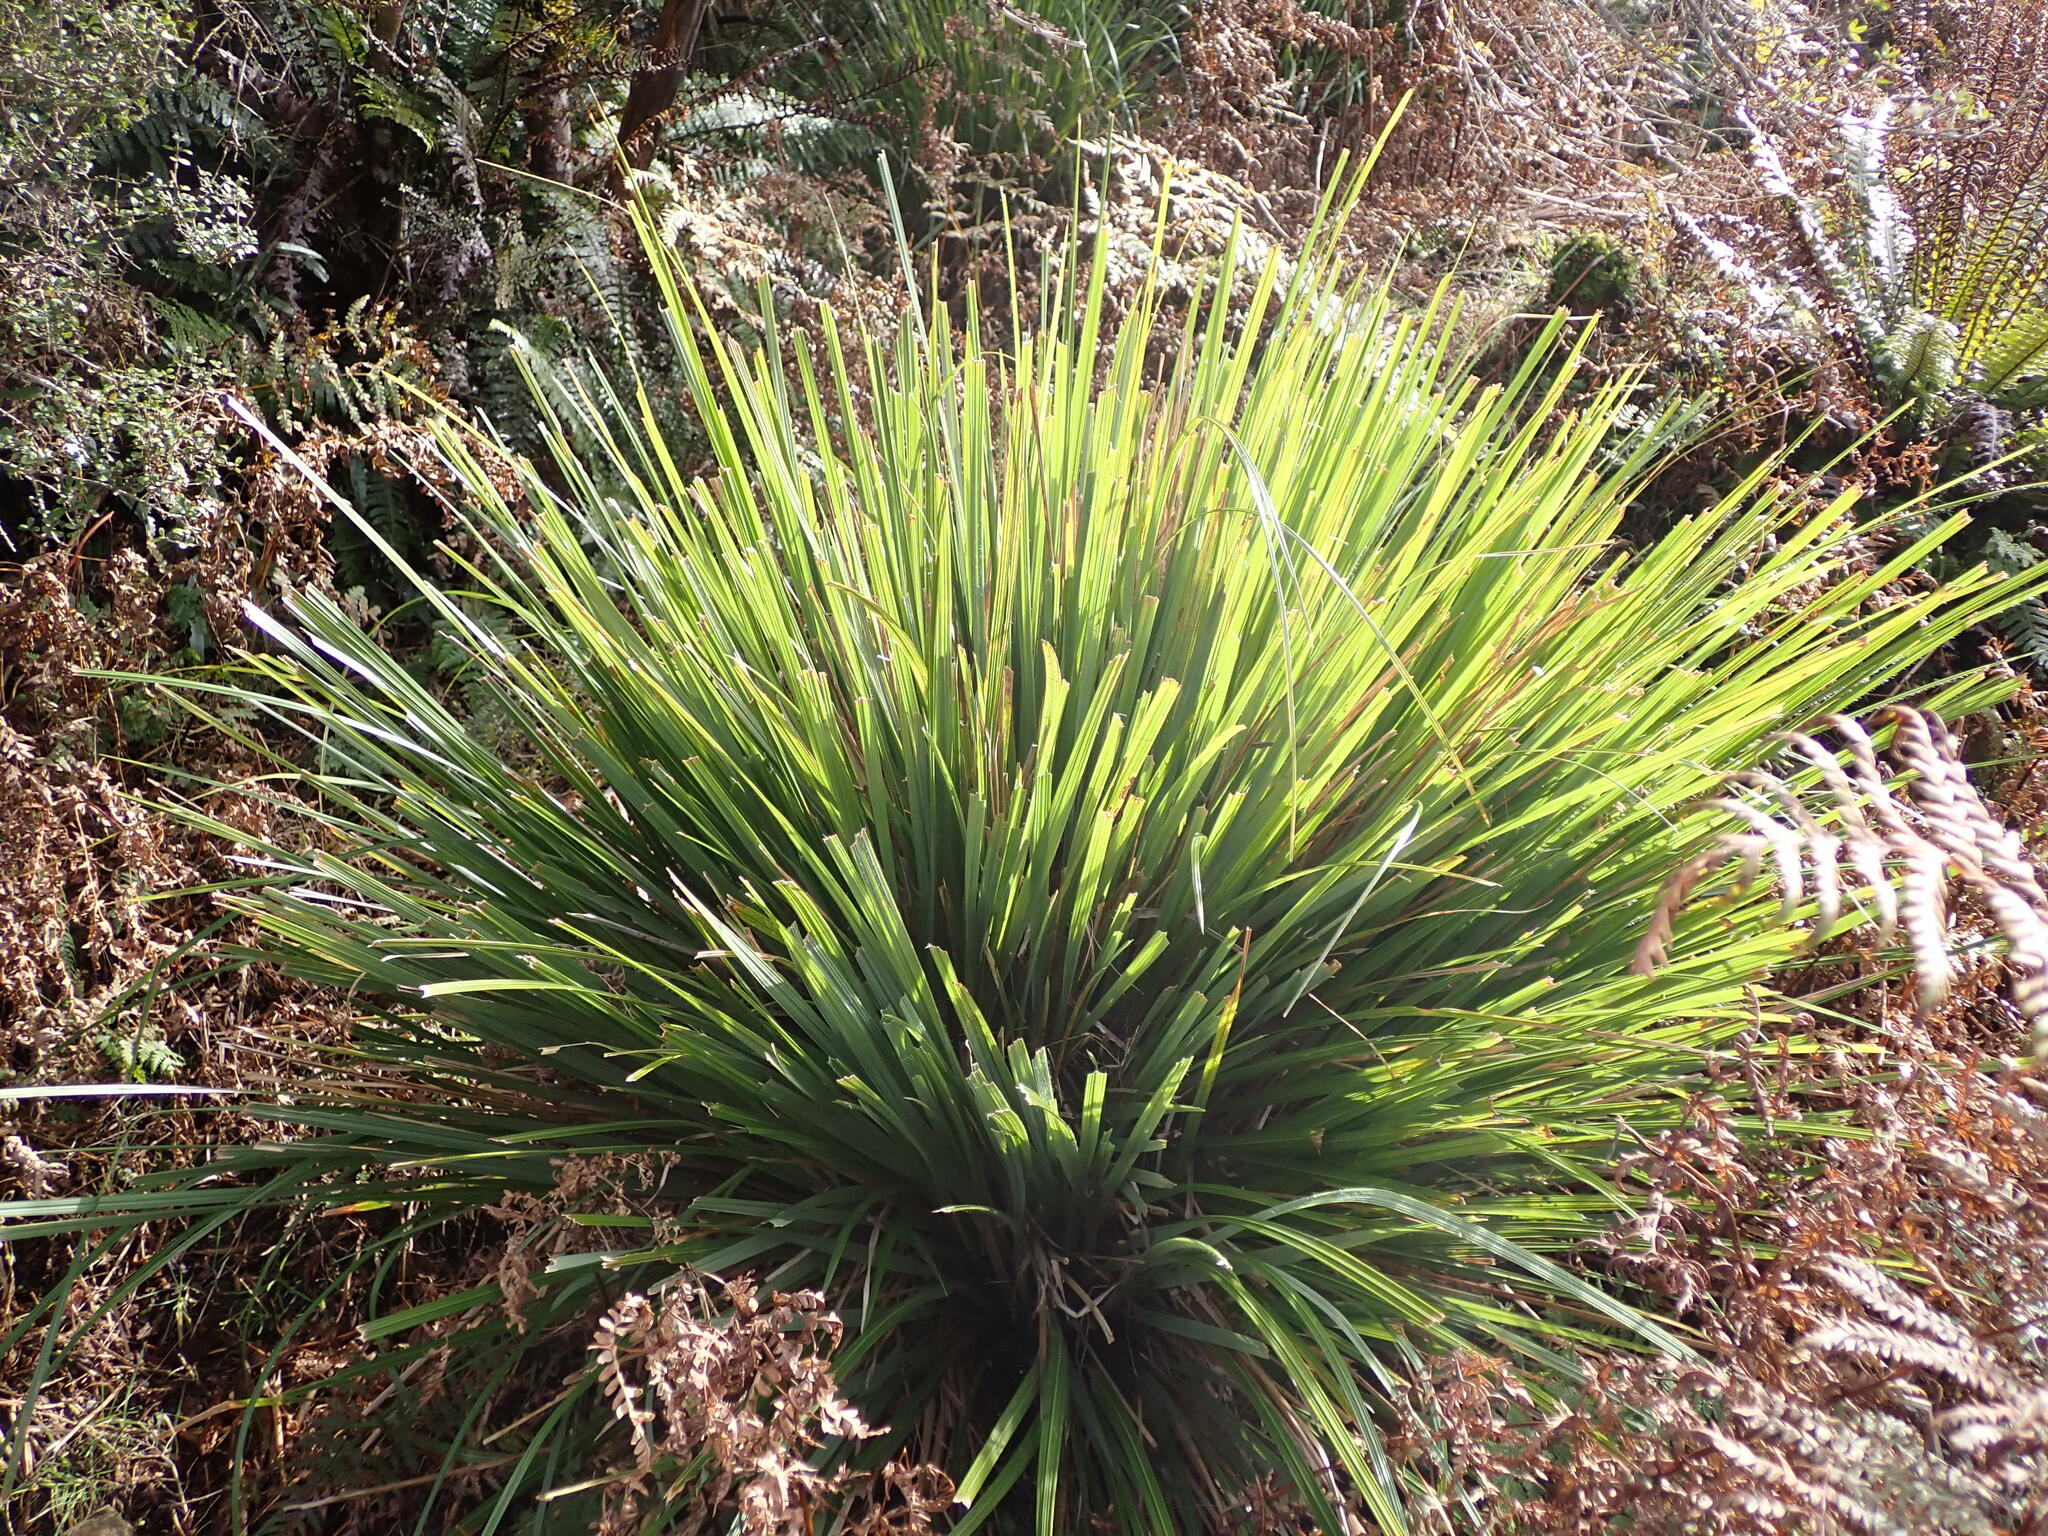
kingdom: Plantae
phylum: Tracheophyta
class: Liliopsida
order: Poales
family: Poaceae
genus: Chionochloa
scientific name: Chionochloa conspicua
